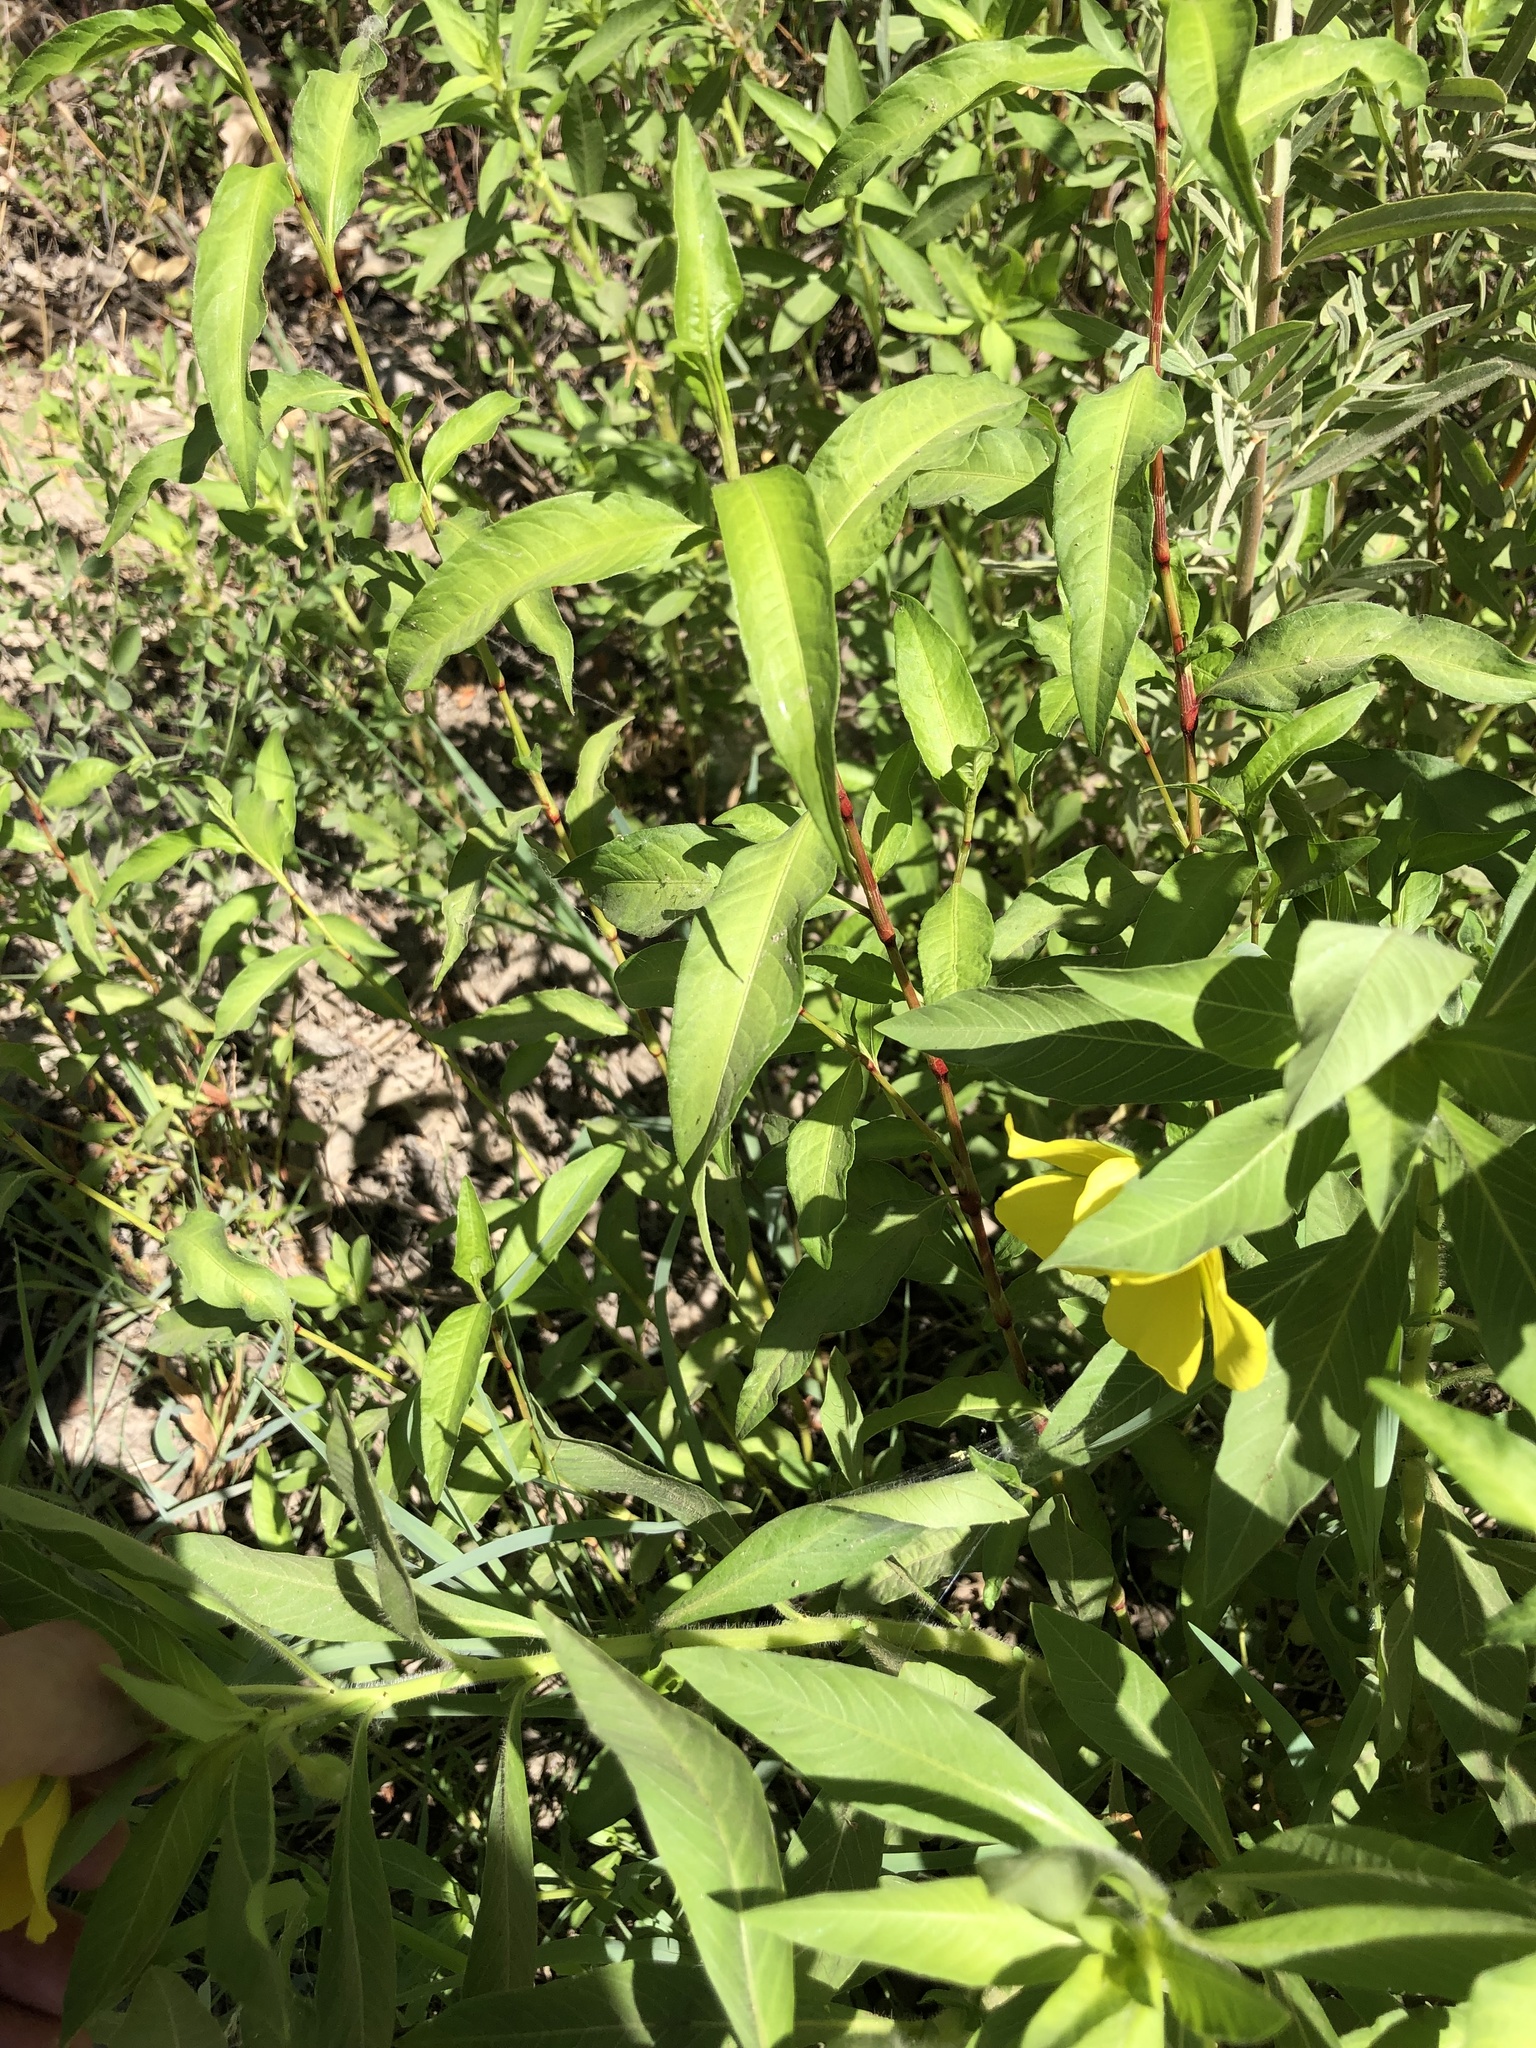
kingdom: Plantae
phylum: Tracheophyta
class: Magnoliopsida
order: Myrtales
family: Onagraceae
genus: Ludwigia
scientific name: Ludwigia hexapetala
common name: Water-primrose
